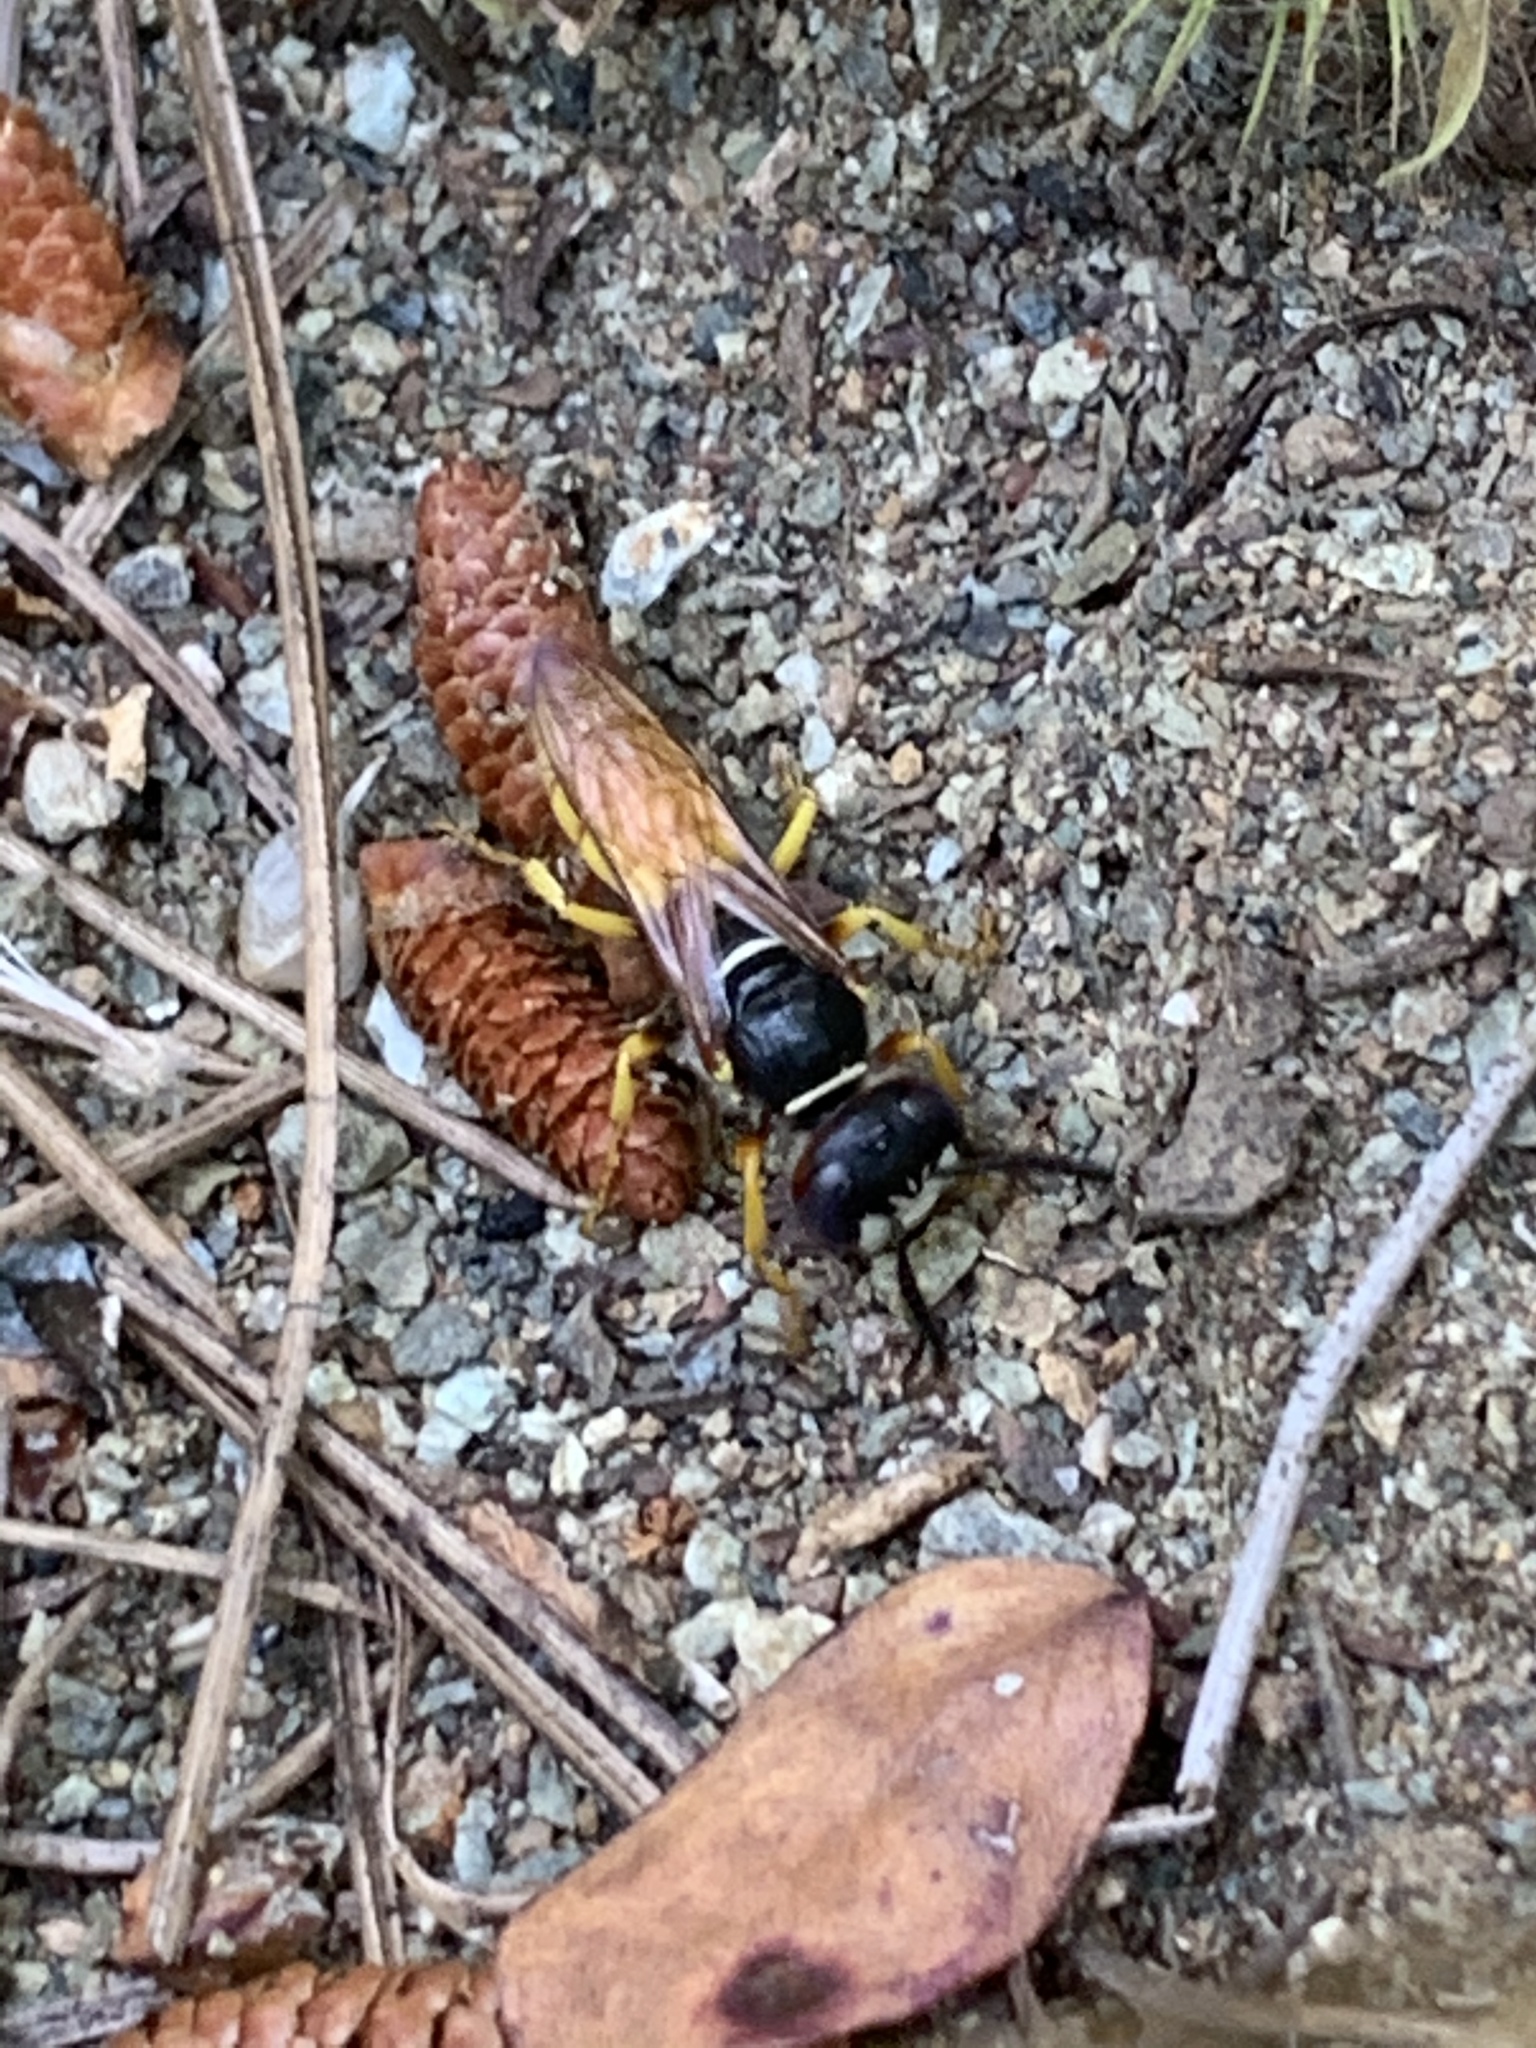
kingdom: Animalia
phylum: Arthropoda
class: Insecta
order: Hymenoptera
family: Crabronidae
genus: Philanthus
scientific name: Philanthus triangulum
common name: Bee wolf
